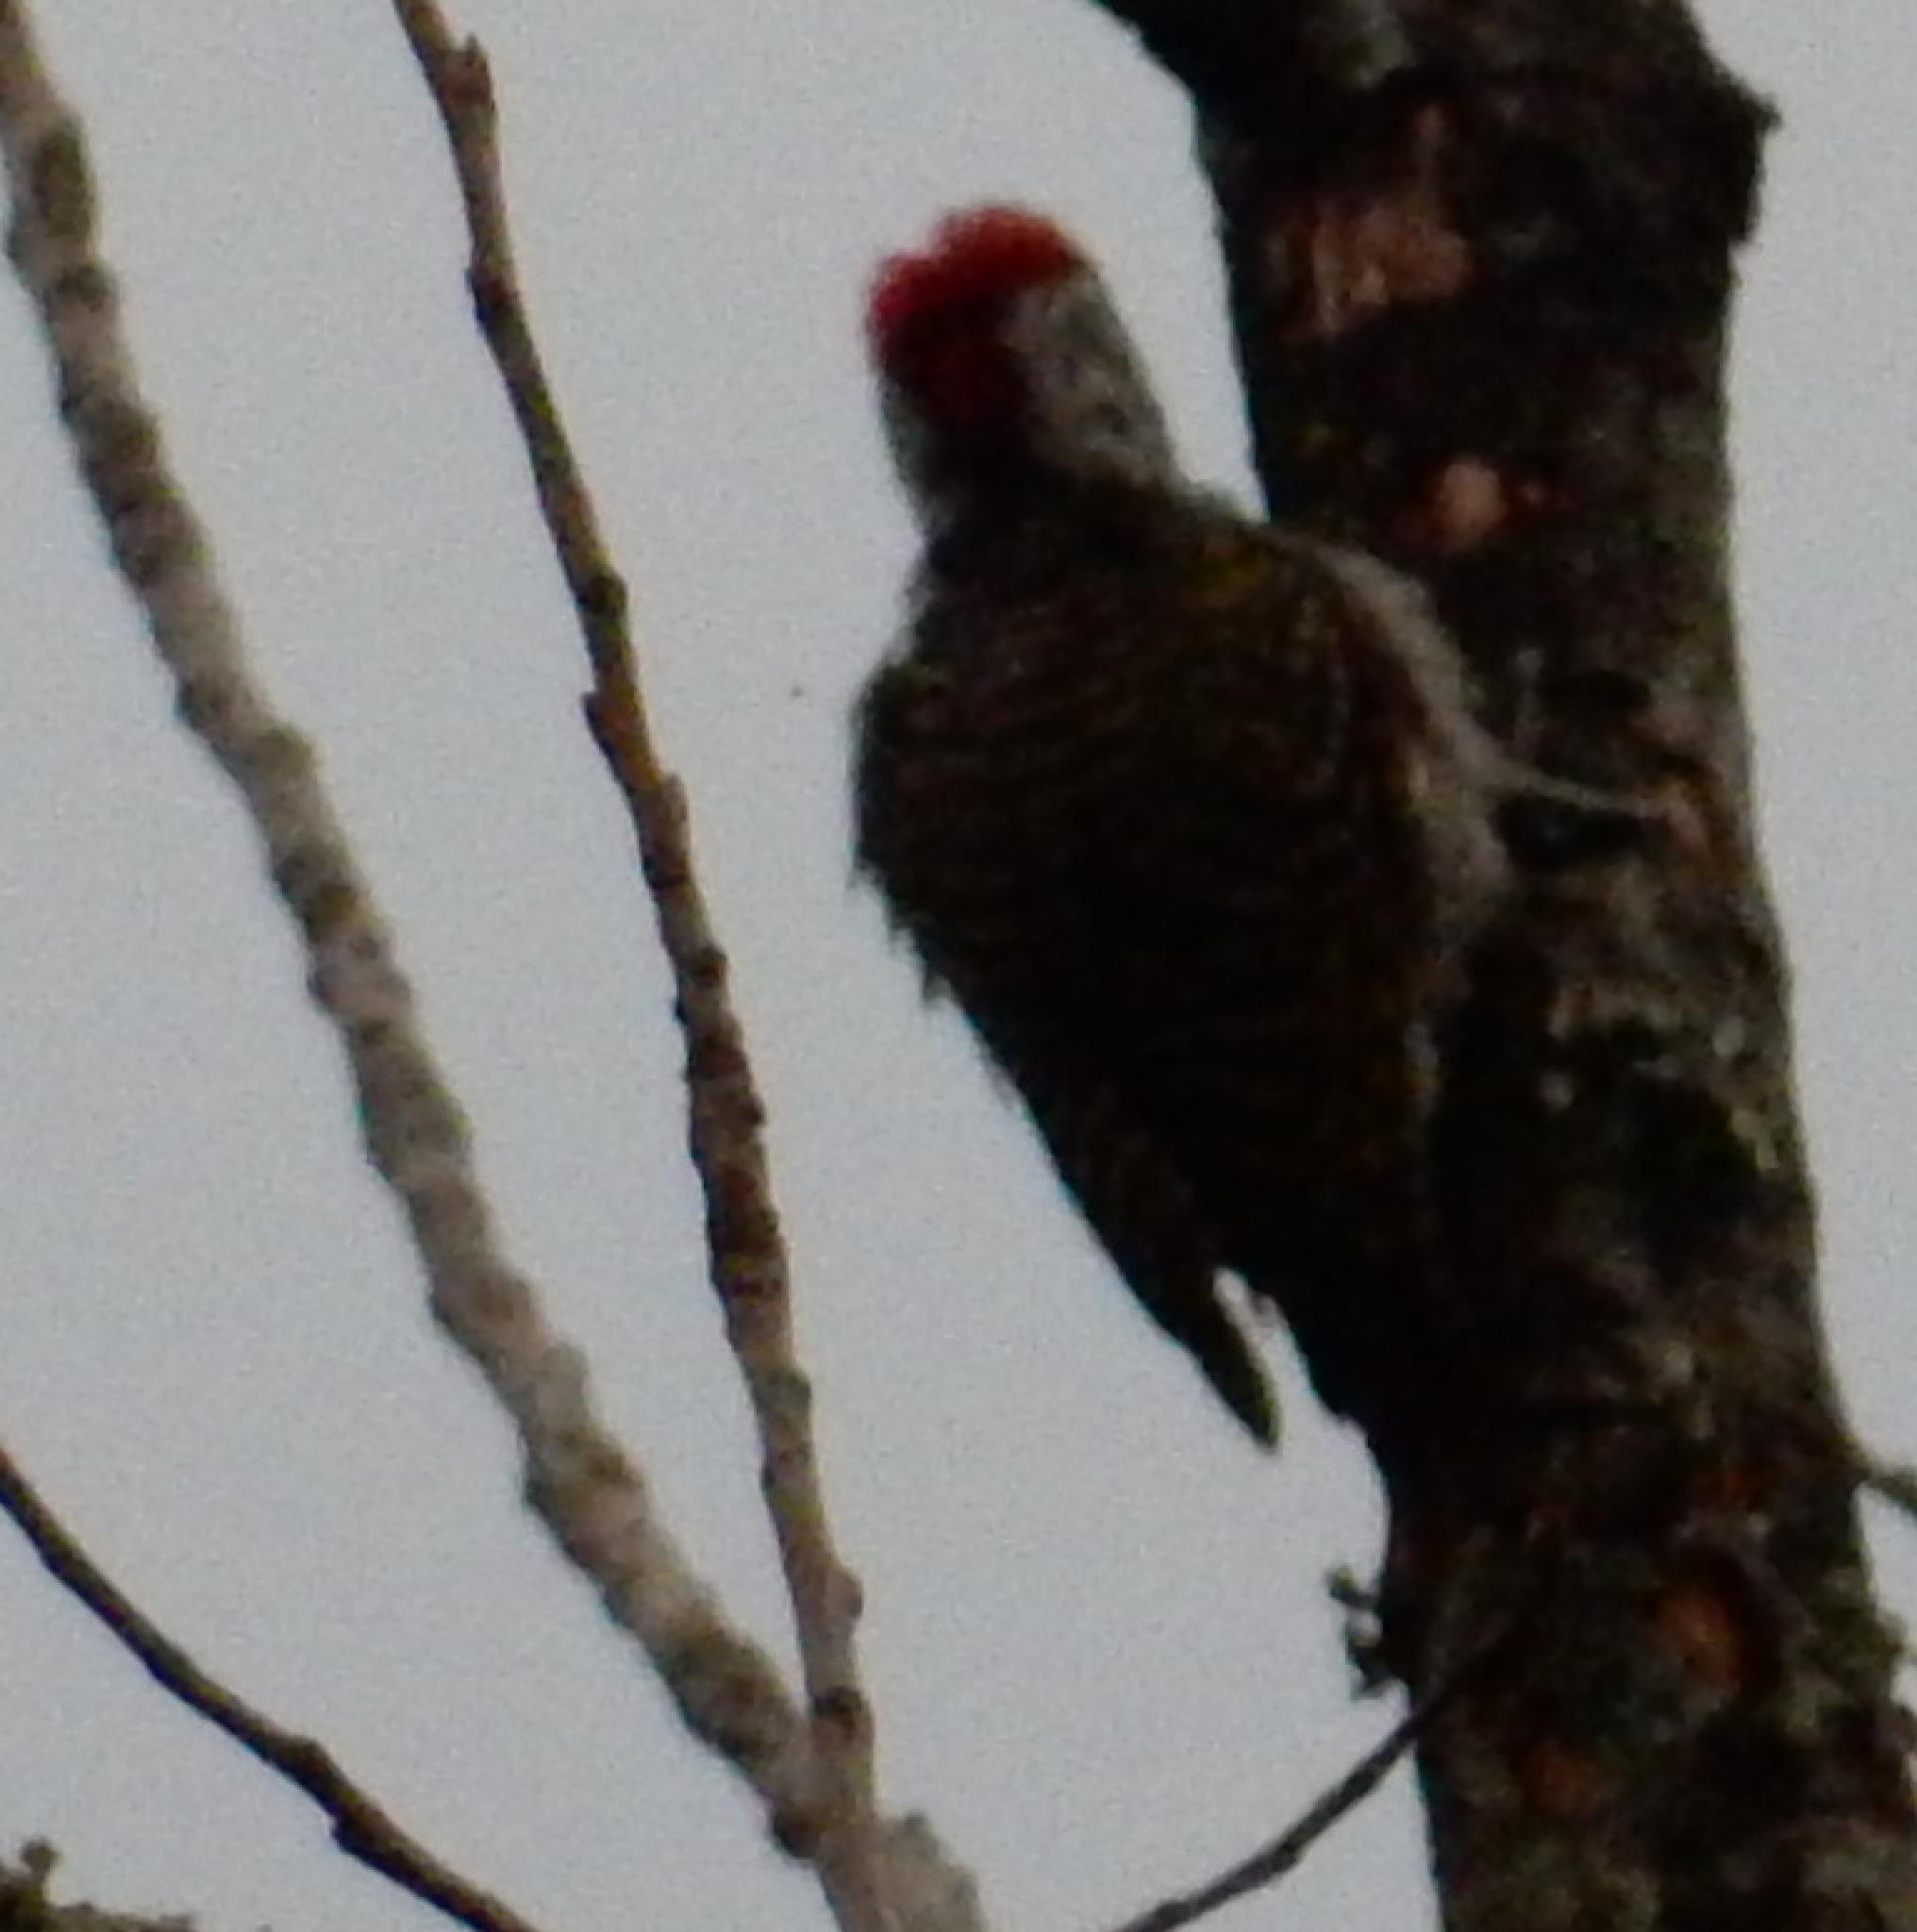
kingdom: Animalia
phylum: Chordata
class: Aves
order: Piciformes
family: Picidae
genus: Dendropicos
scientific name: Dendropicos fuscescens
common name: Cardinal woodpecker
